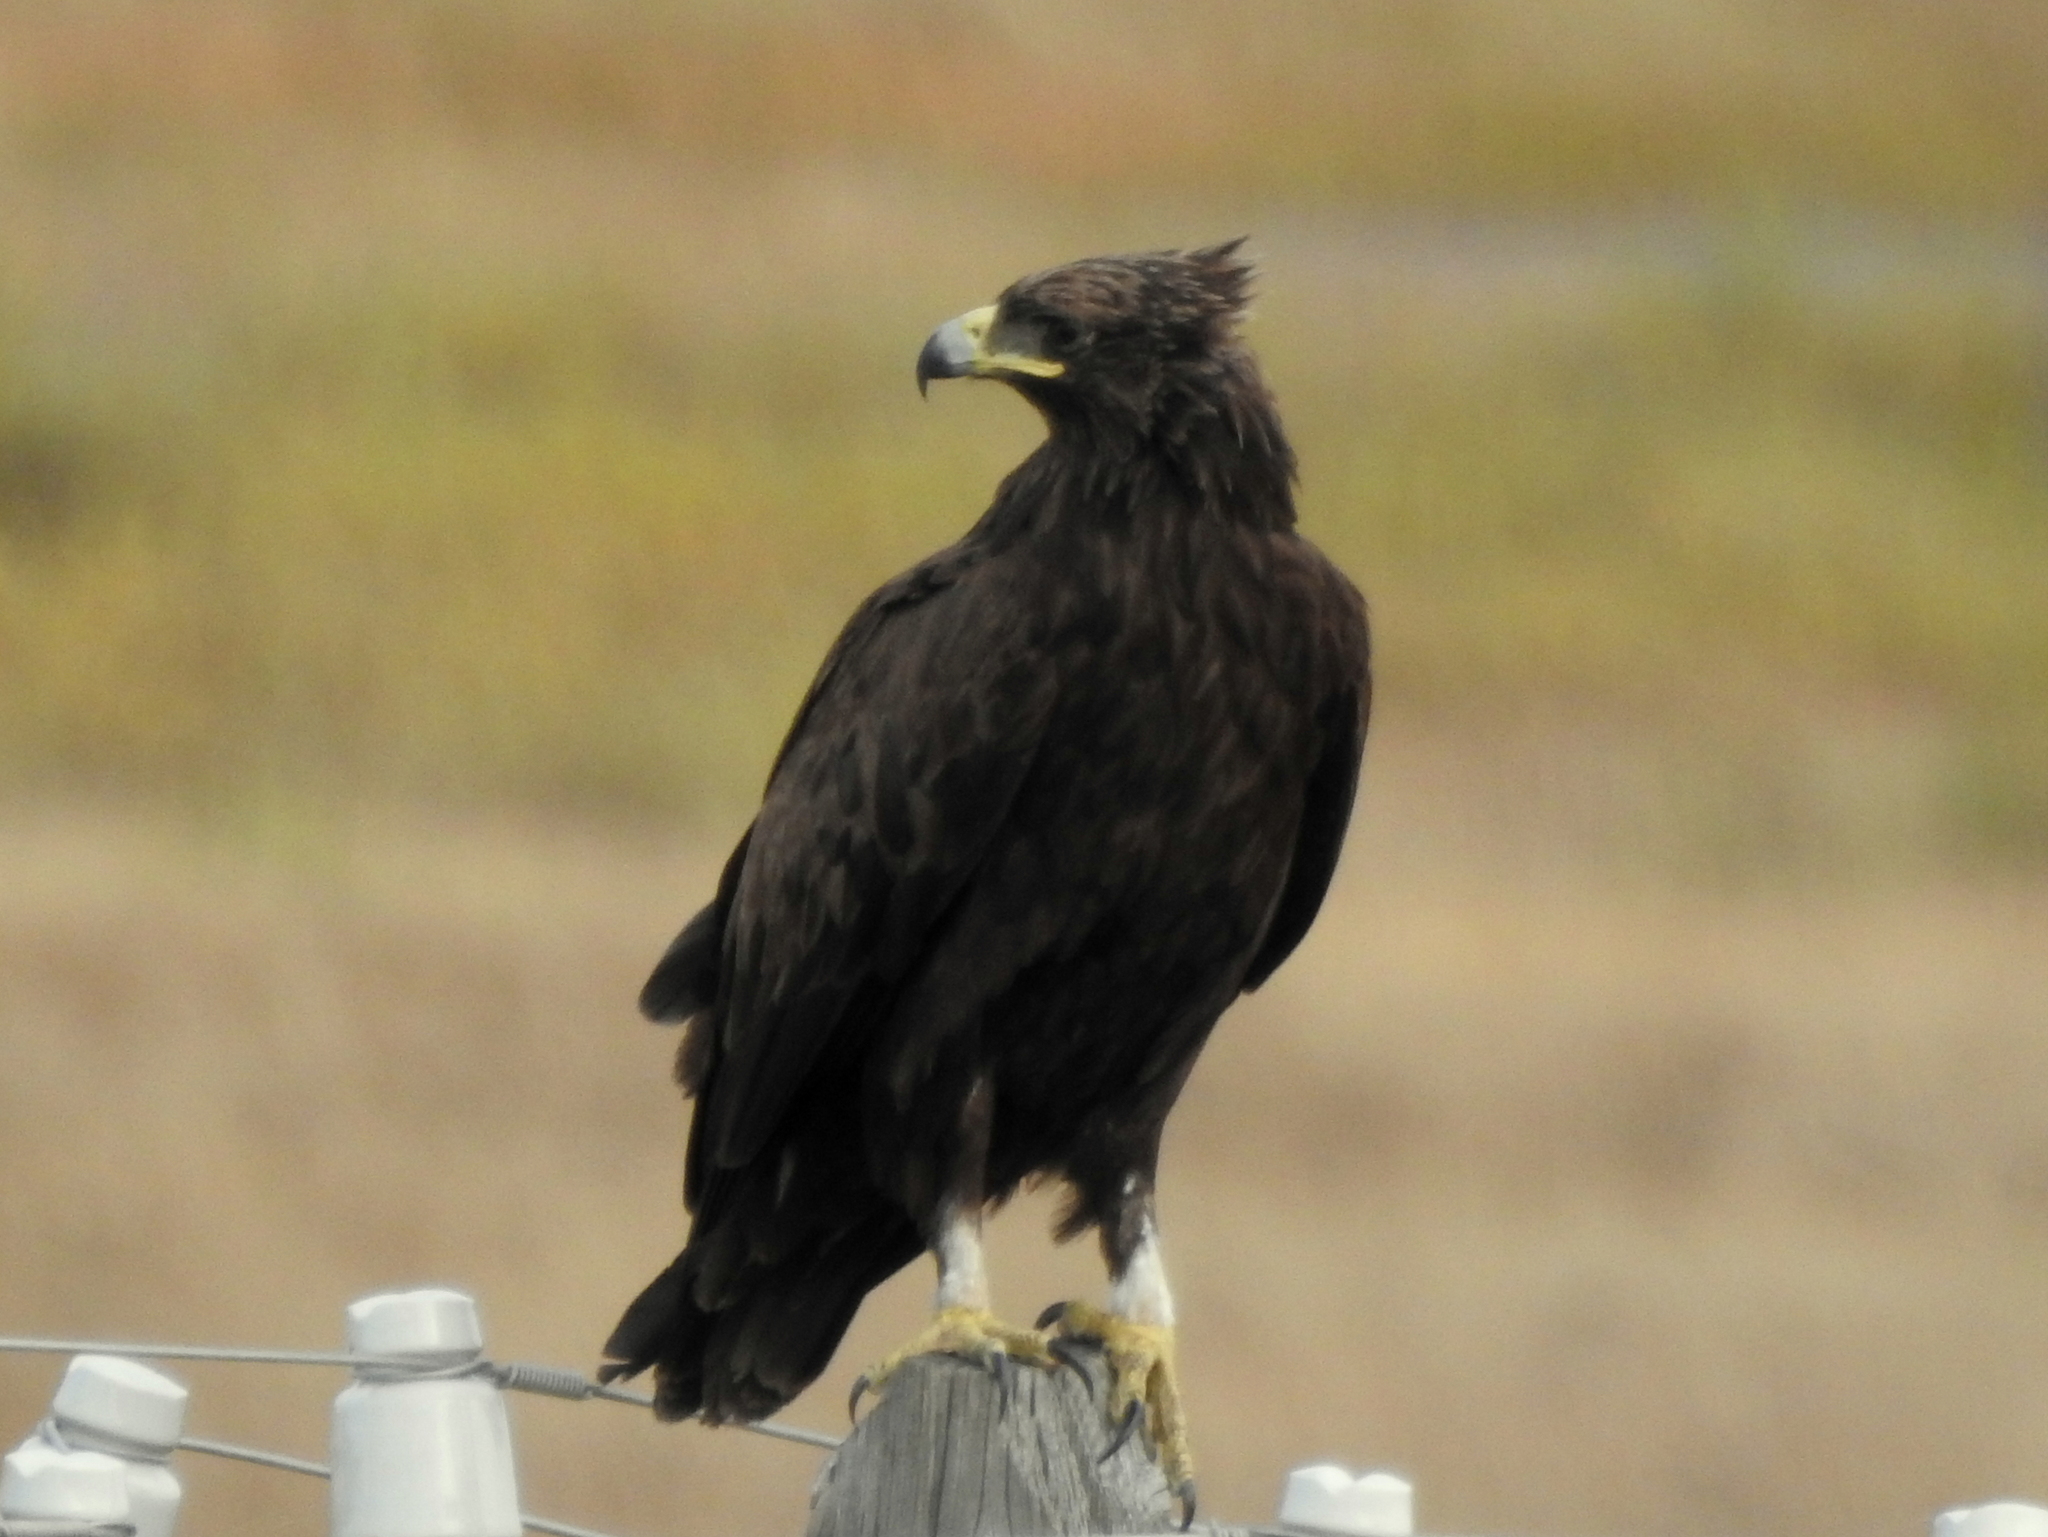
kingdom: Animalia
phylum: Chordata
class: Aves
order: Accipitriformes
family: Accipitridae
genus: Aquila
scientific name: Aquila clanga
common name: Greater spotted eagle
